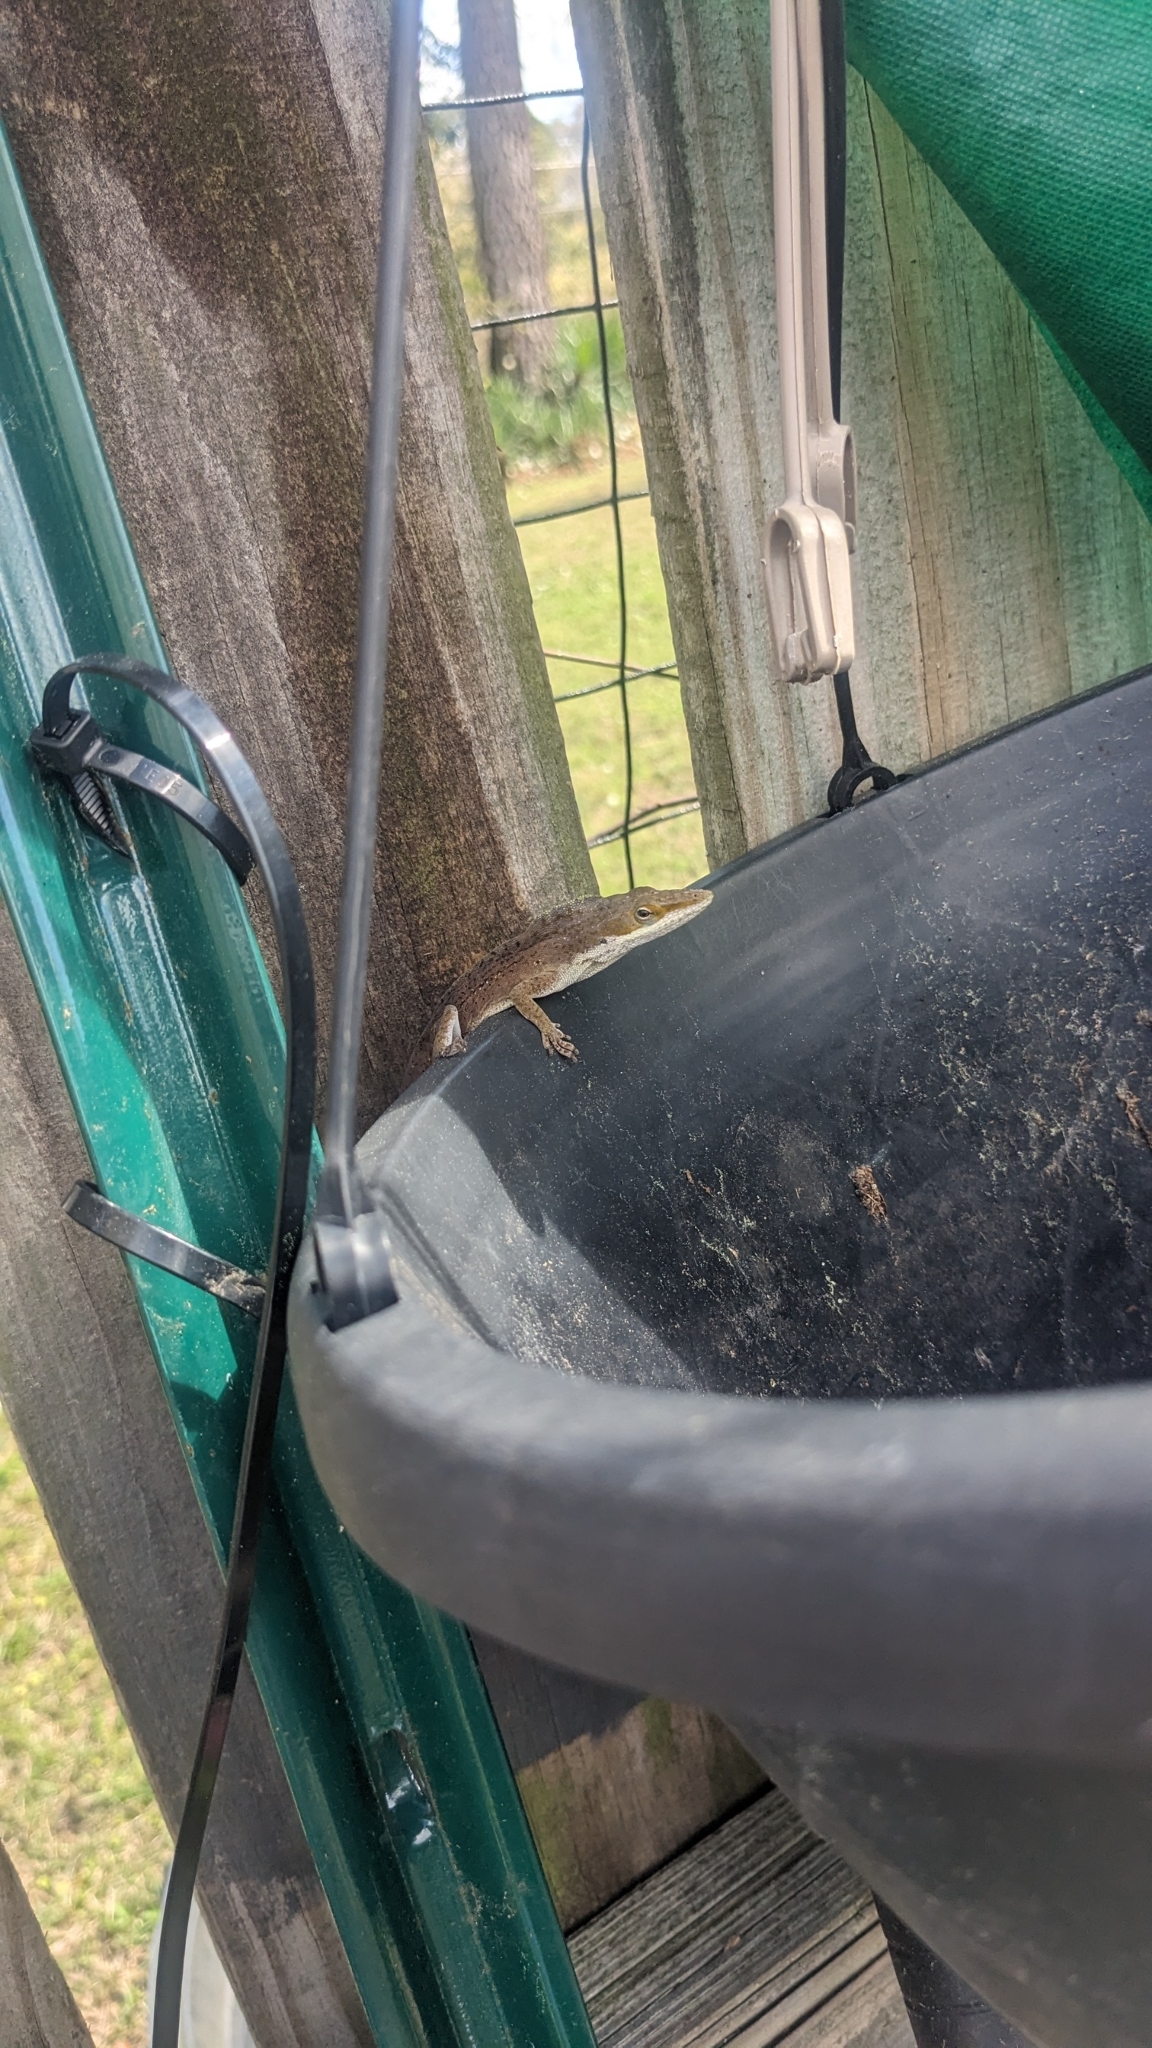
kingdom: Animalia
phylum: Chordata
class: Squamata
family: Dactyloidae
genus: Anolis
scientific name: Anolis carolinensis
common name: Green anole
